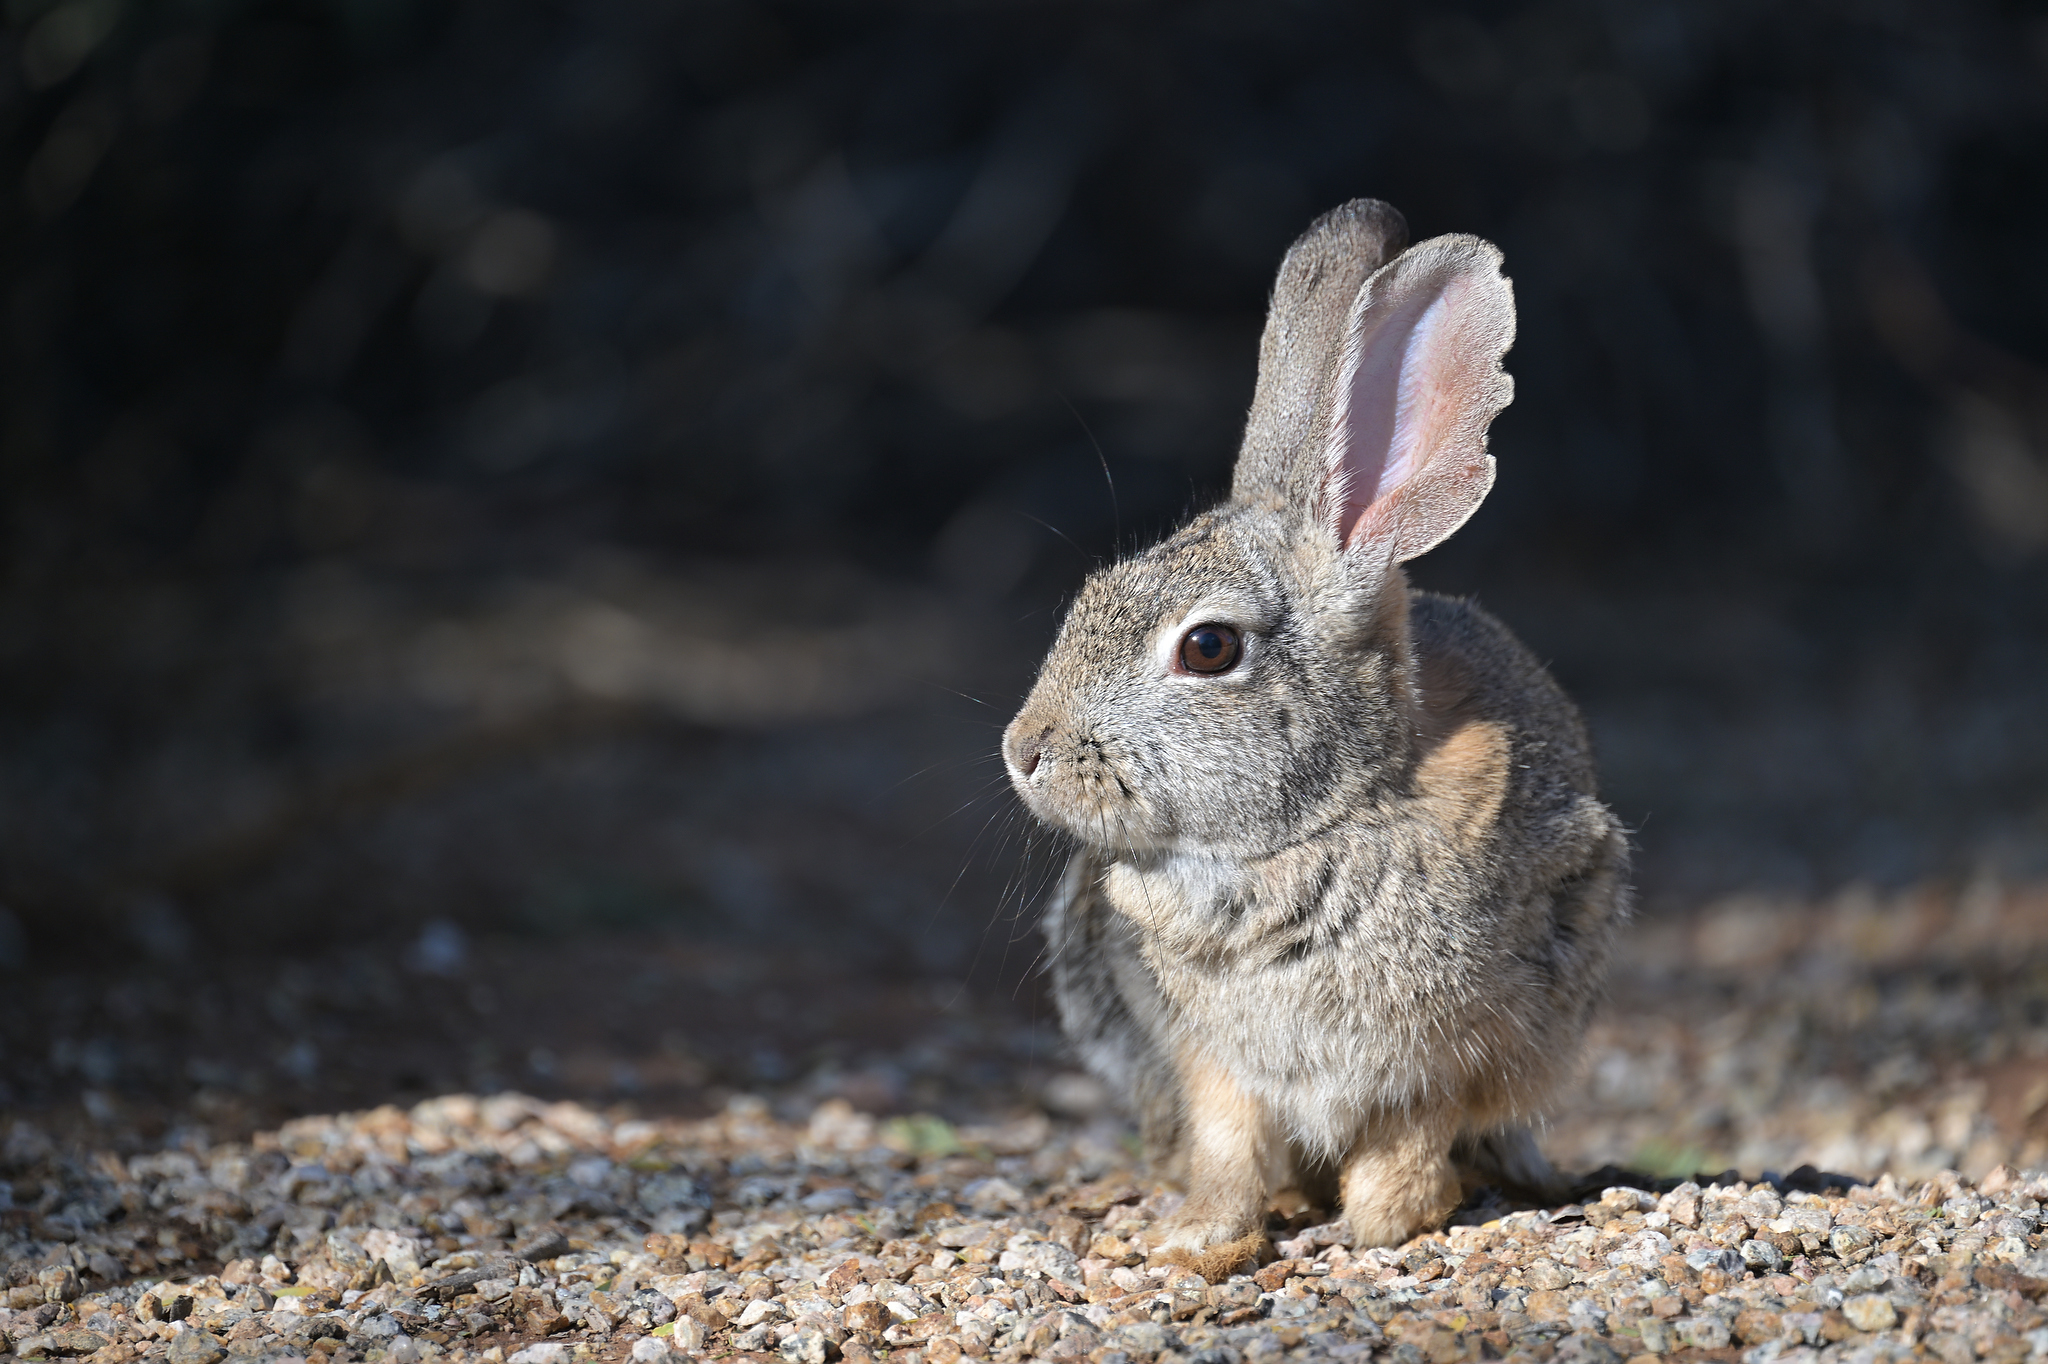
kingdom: Animalia
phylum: Chordata
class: Mammalia
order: Lagomorpha
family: Leporidae
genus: Sylvilagus
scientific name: Sylvilagus audubonii
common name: Desert cottontail
